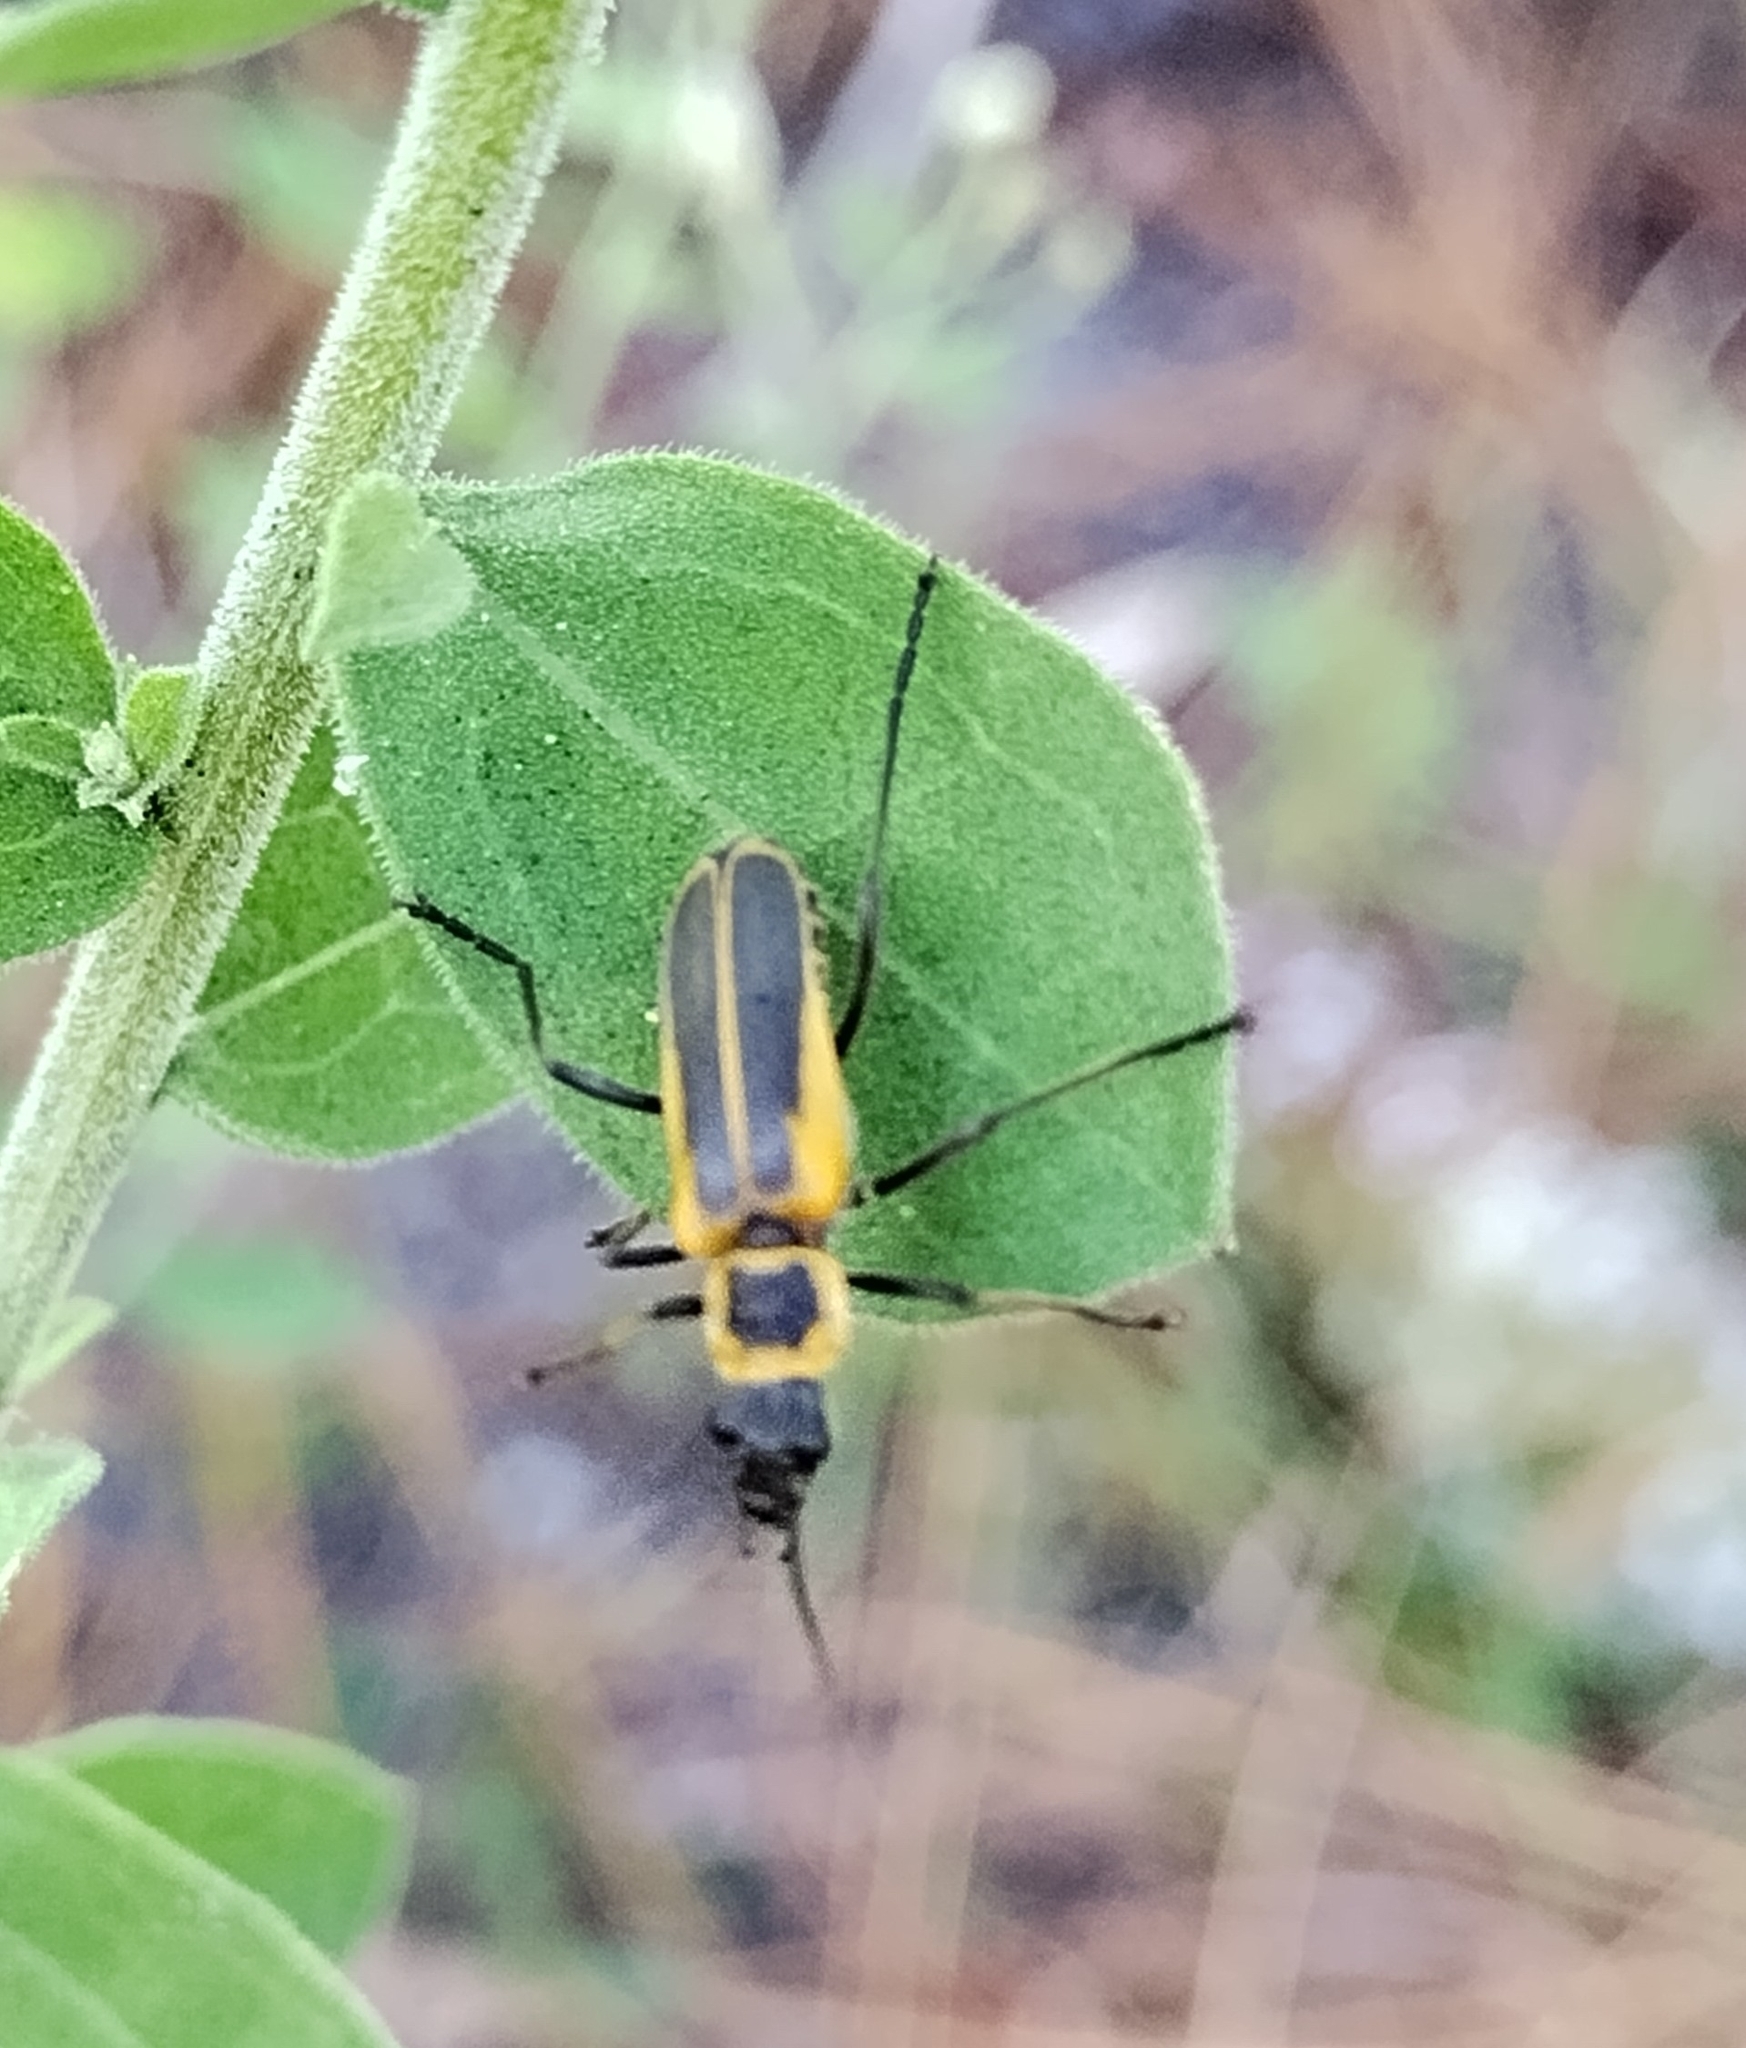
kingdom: Animalia
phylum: Arthropoda
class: Insecta
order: Coleoptera
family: Cantharidae
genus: Chauliognathus
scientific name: Chauliognathus pensylvanicus
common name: Goldenrod soldier beetle
